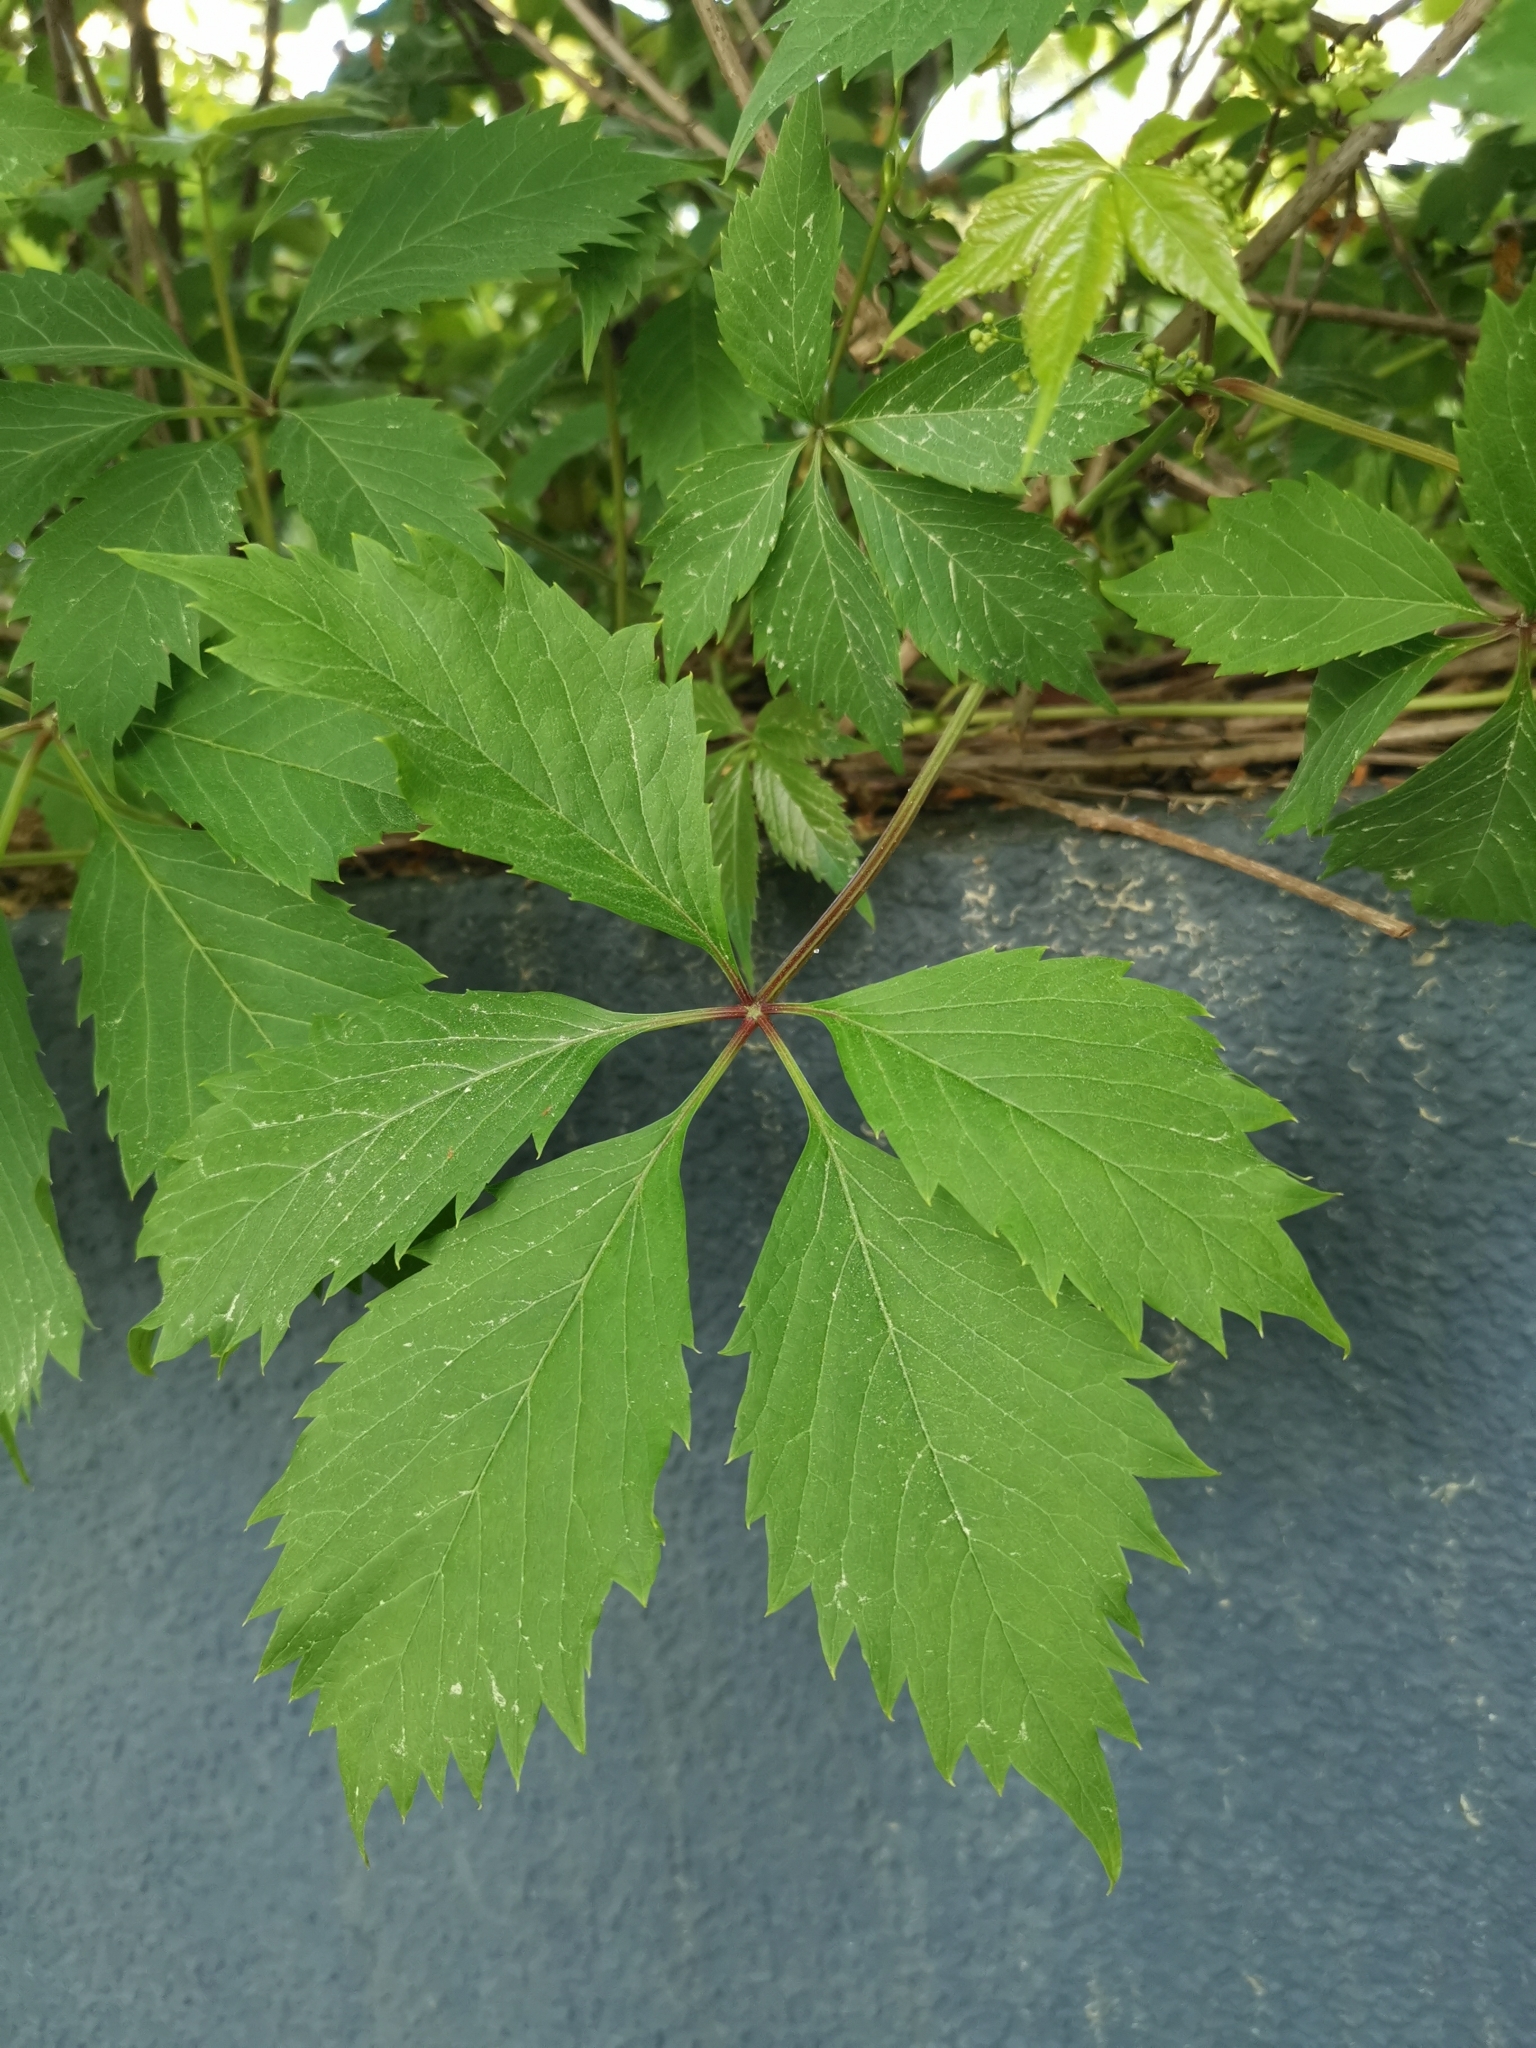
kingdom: Plantae
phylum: Tracheophyta
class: Magnoliopsida
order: Vitales
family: Vitaceae
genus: Parthenocissus
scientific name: Parthenocissus inserta
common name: False virginia-creeper
